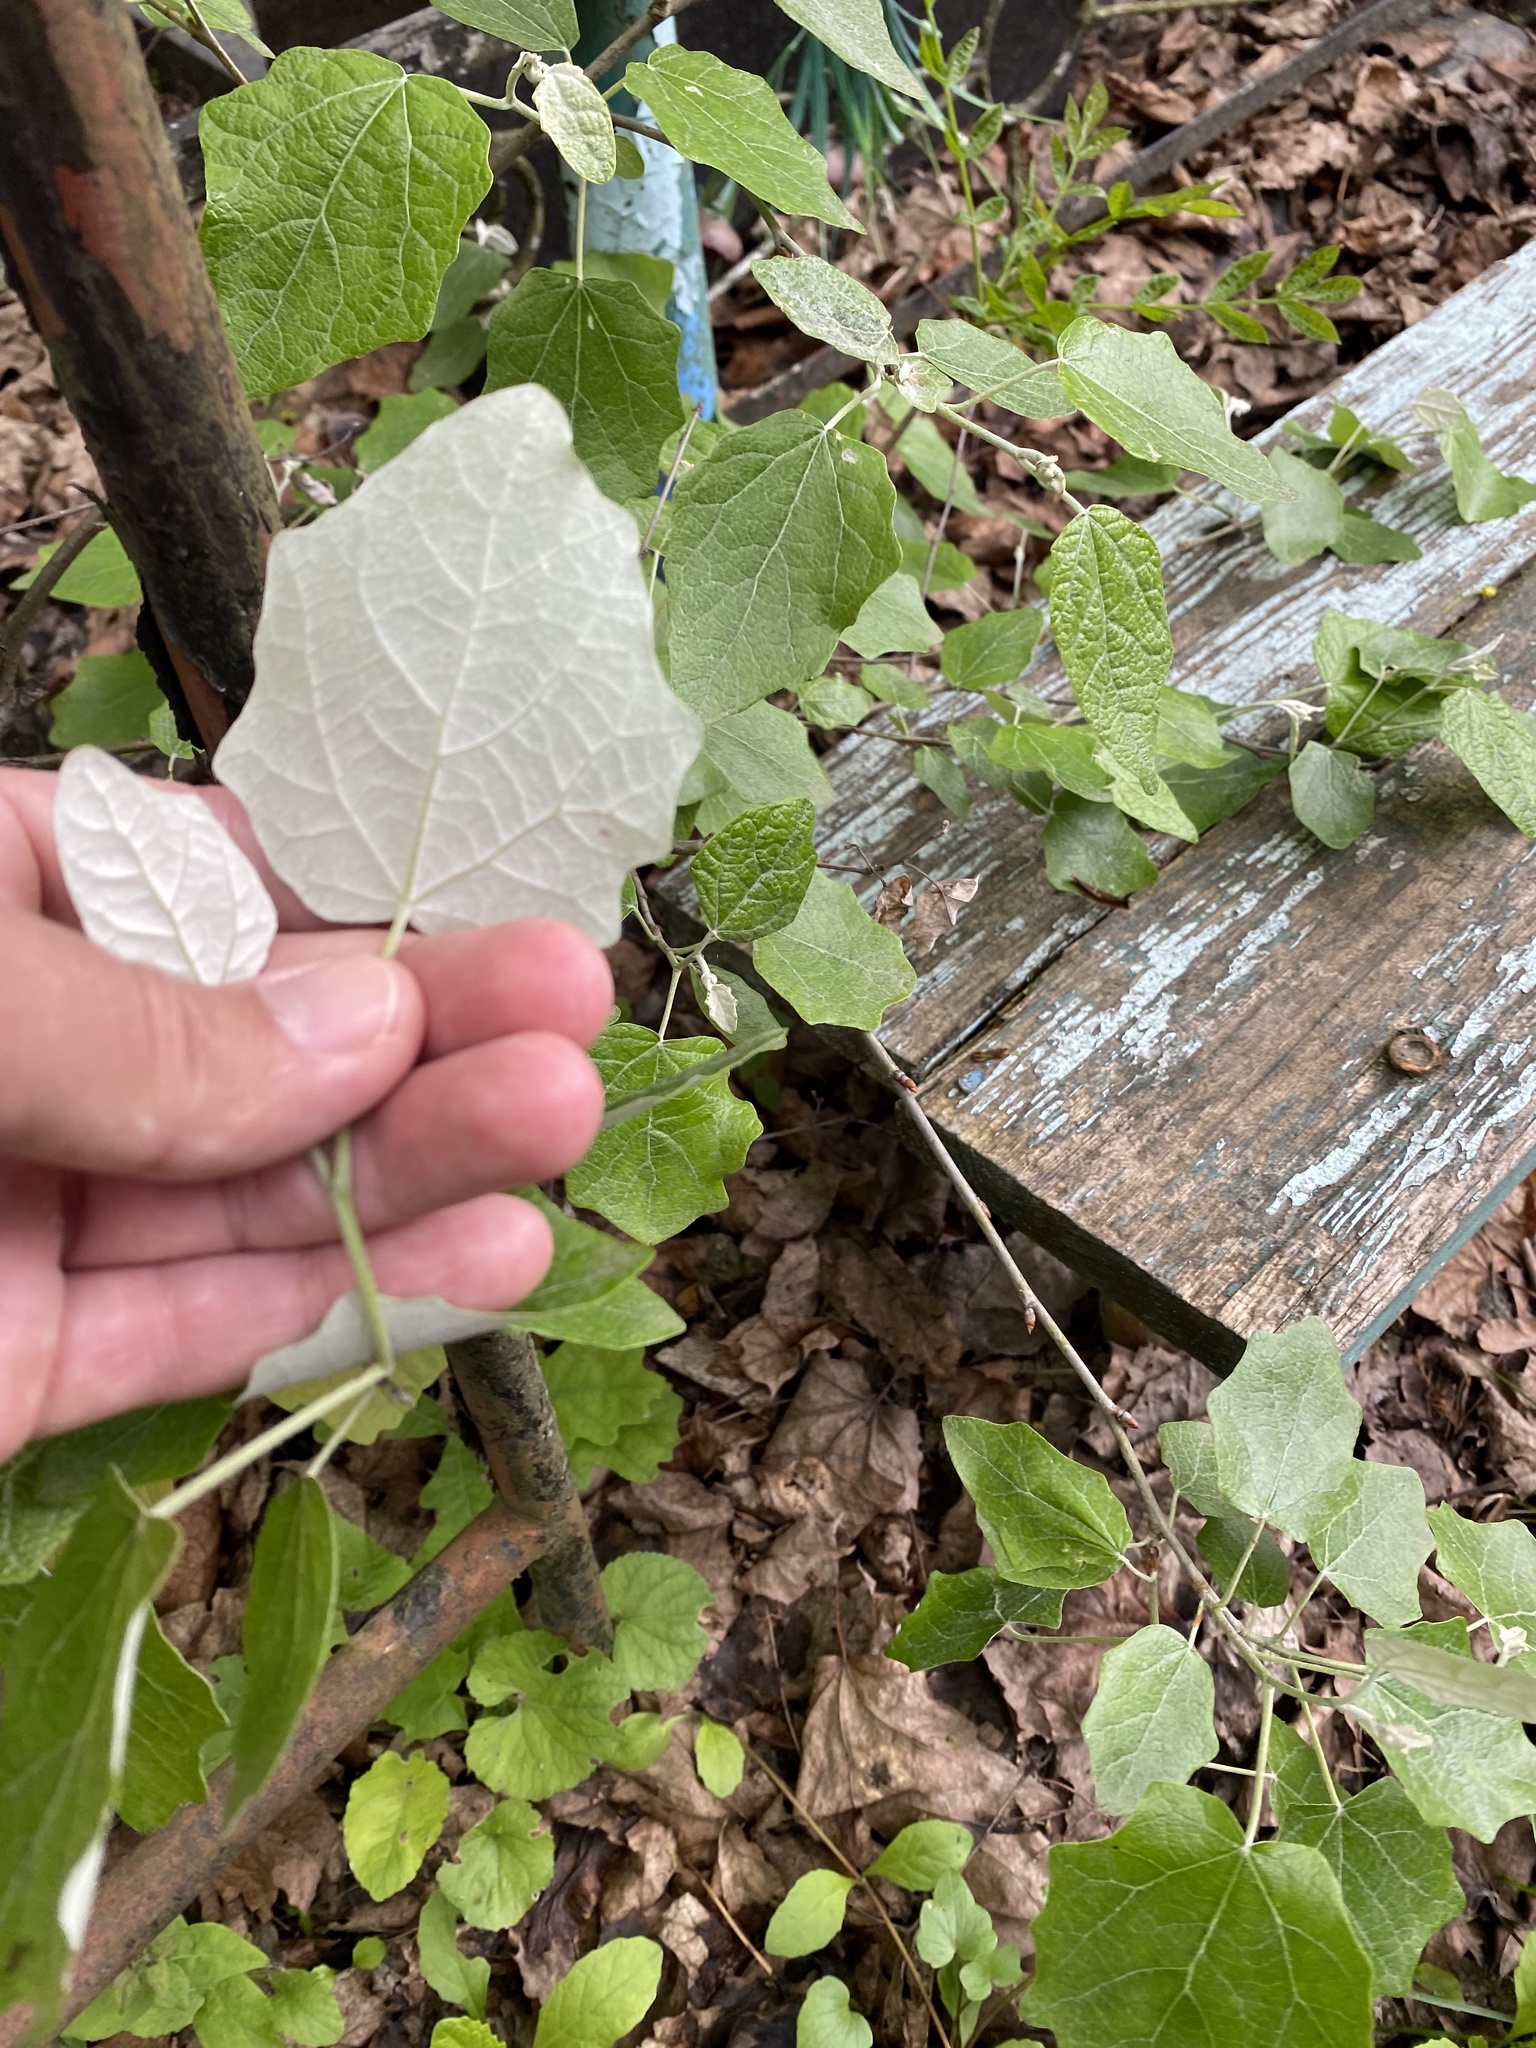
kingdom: Plantae
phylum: Tracheophyta
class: Magnoliopsida
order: Malpighiales
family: Salicaceae
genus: Populus
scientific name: Populus alba
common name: White poplar
